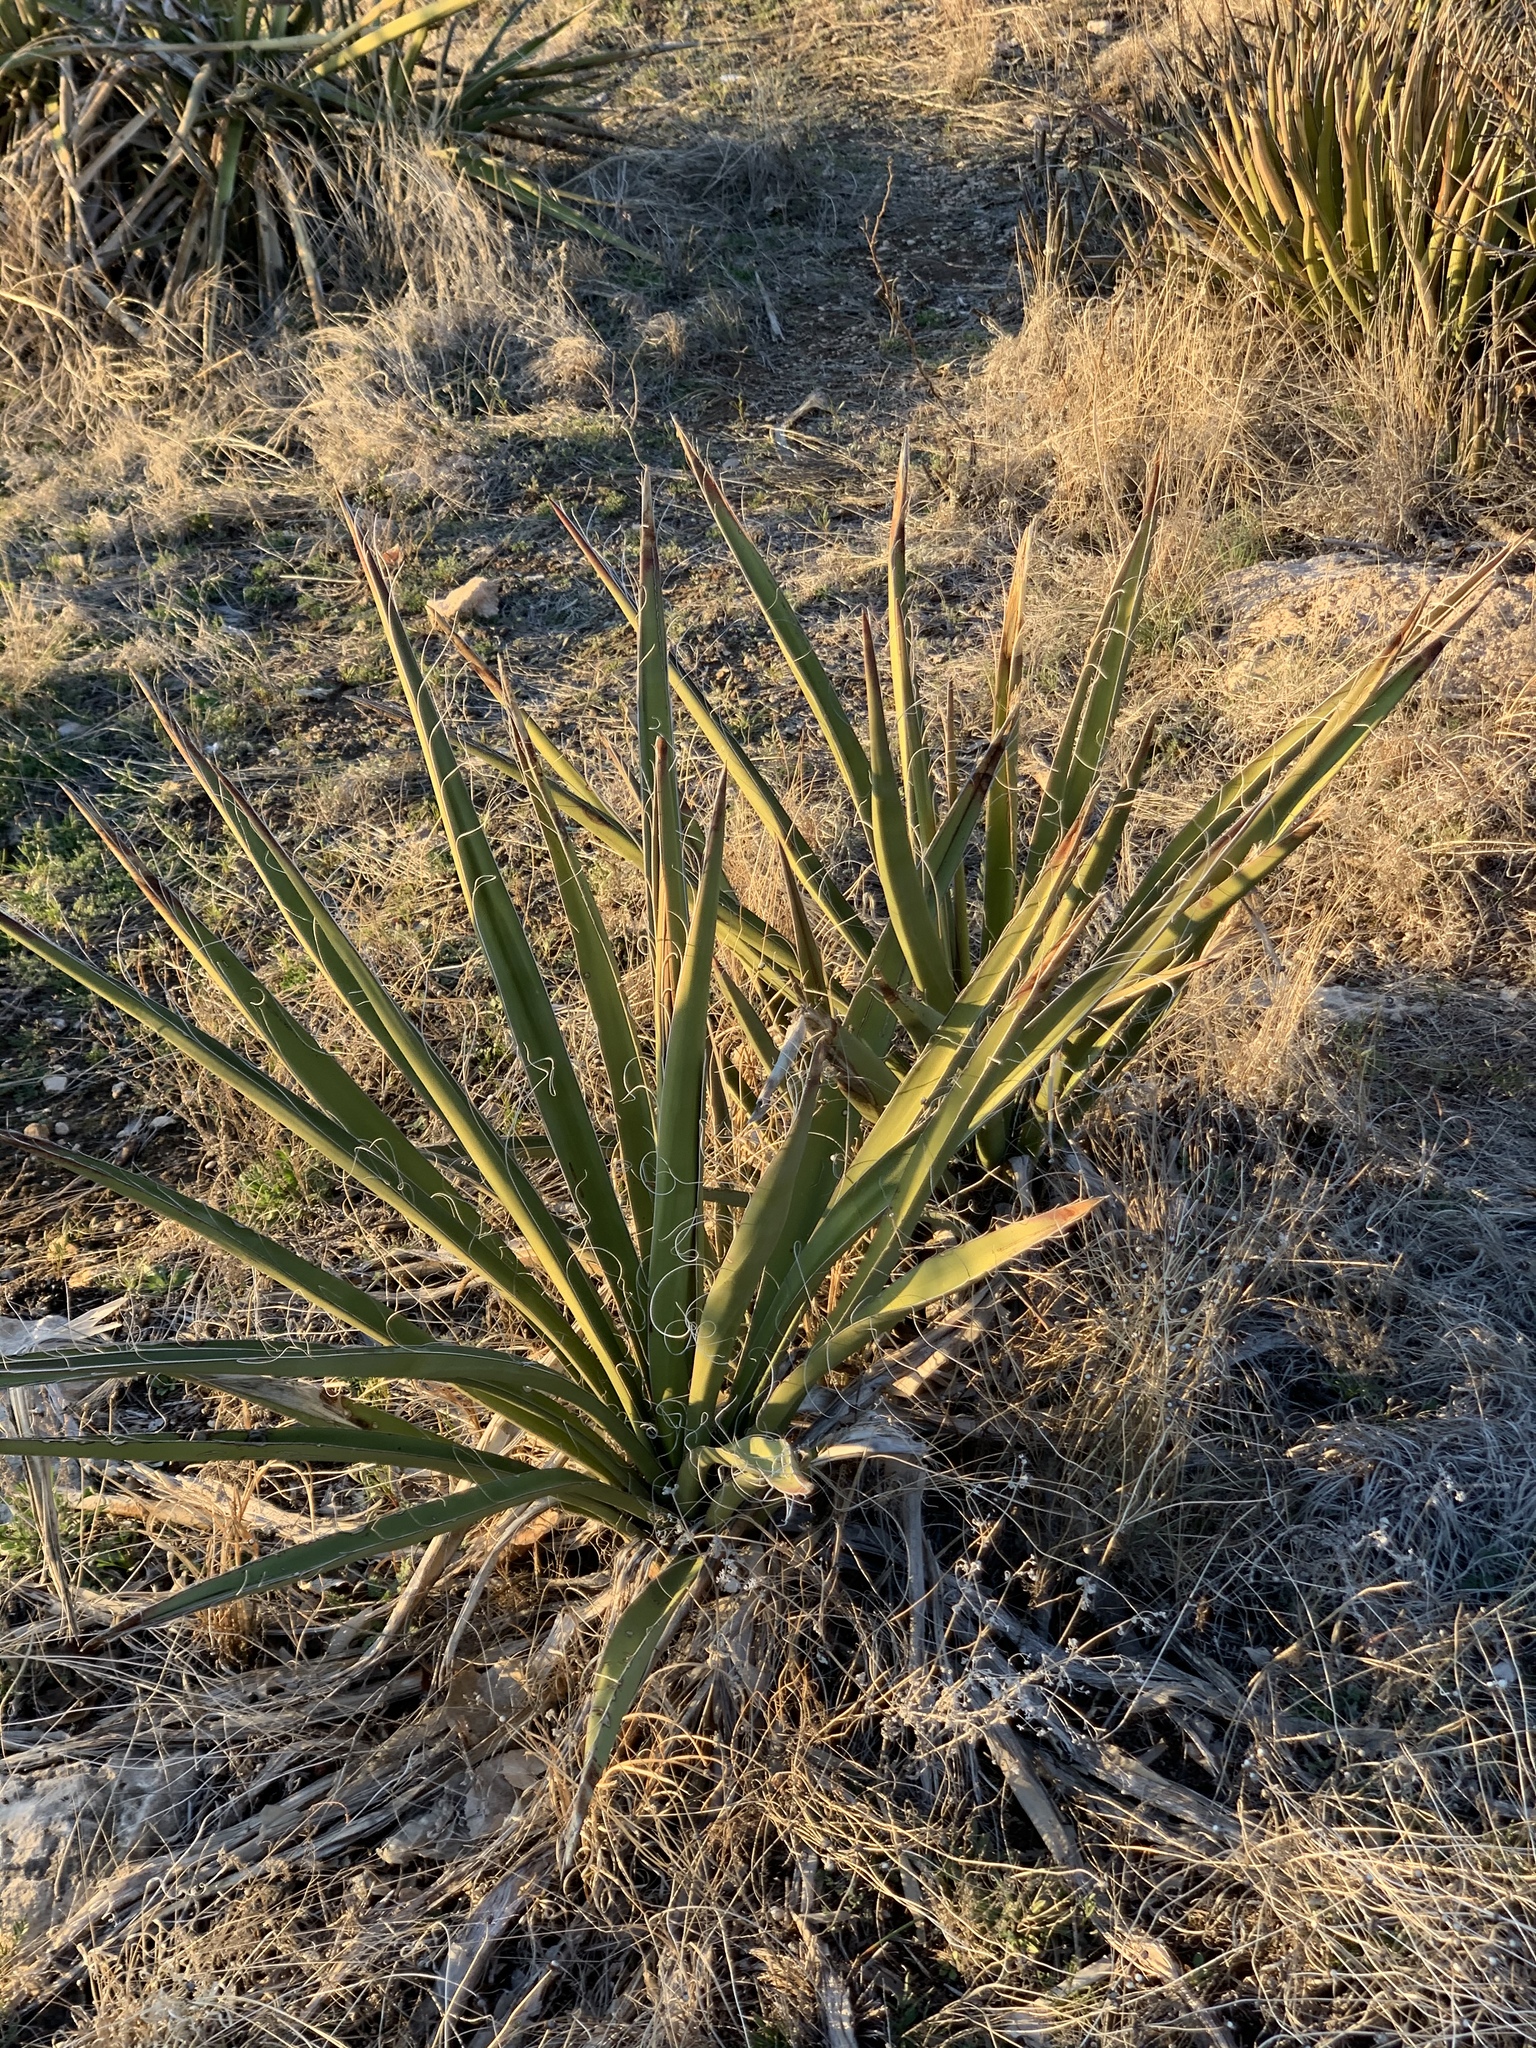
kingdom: Plantae
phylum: Tracheophyta
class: Liliopsida
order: Asparagales
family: Asparagaceae
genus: Yucca
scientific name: Yucca campestris
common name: Plains yucca
